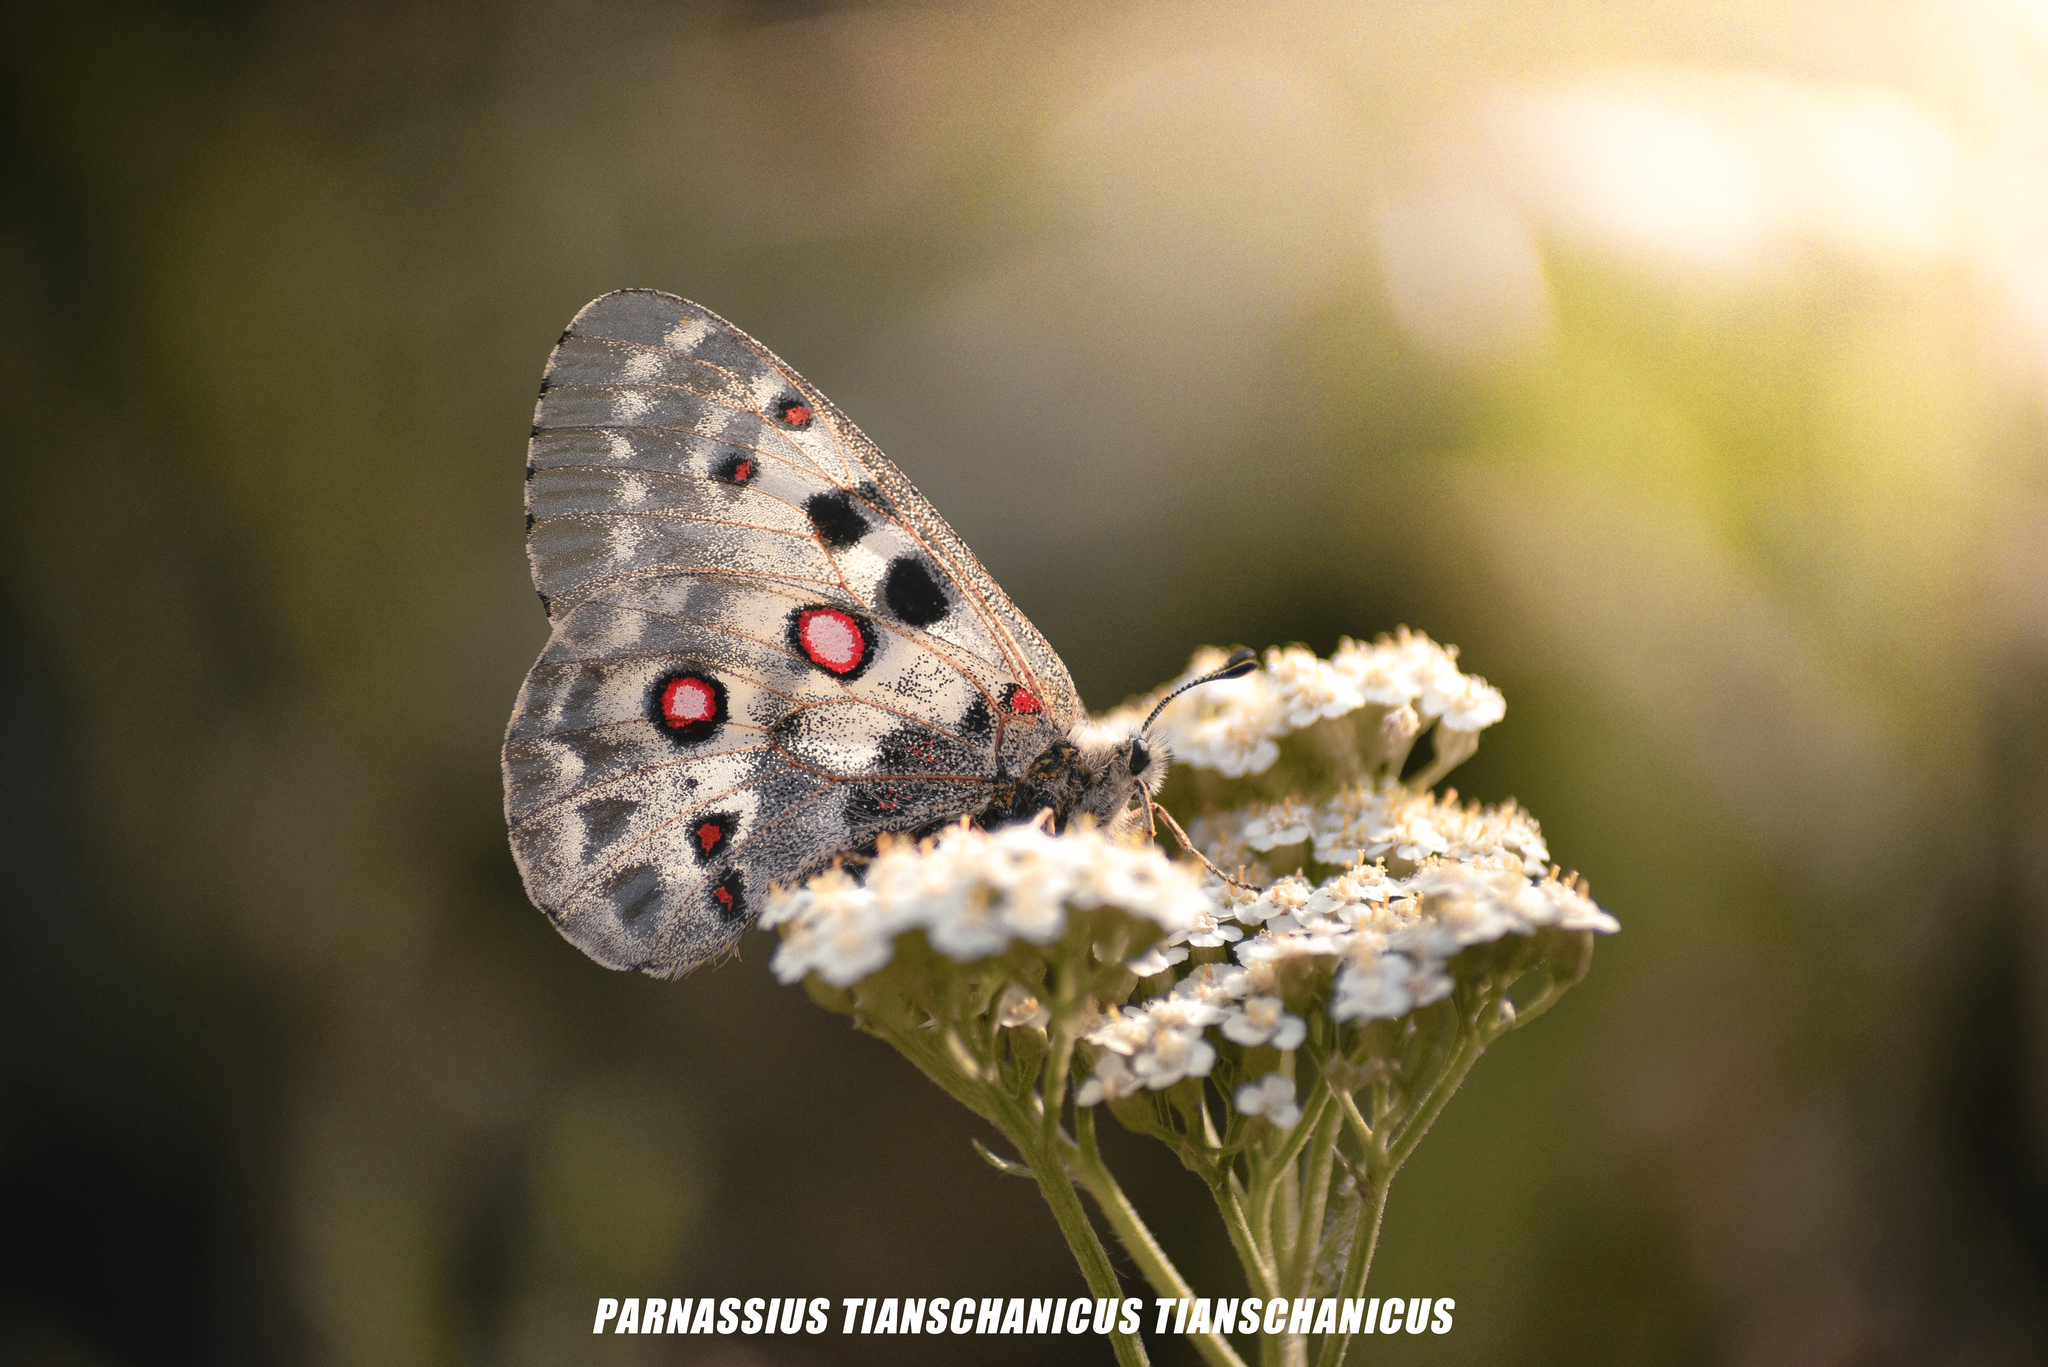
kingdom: Animalia
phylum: Arthropoda
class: Insecta
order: Lepidoptera
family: Papilionidae
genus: Parnassius
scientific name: Parnassius tianschanicus
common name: Large keeled apollo
